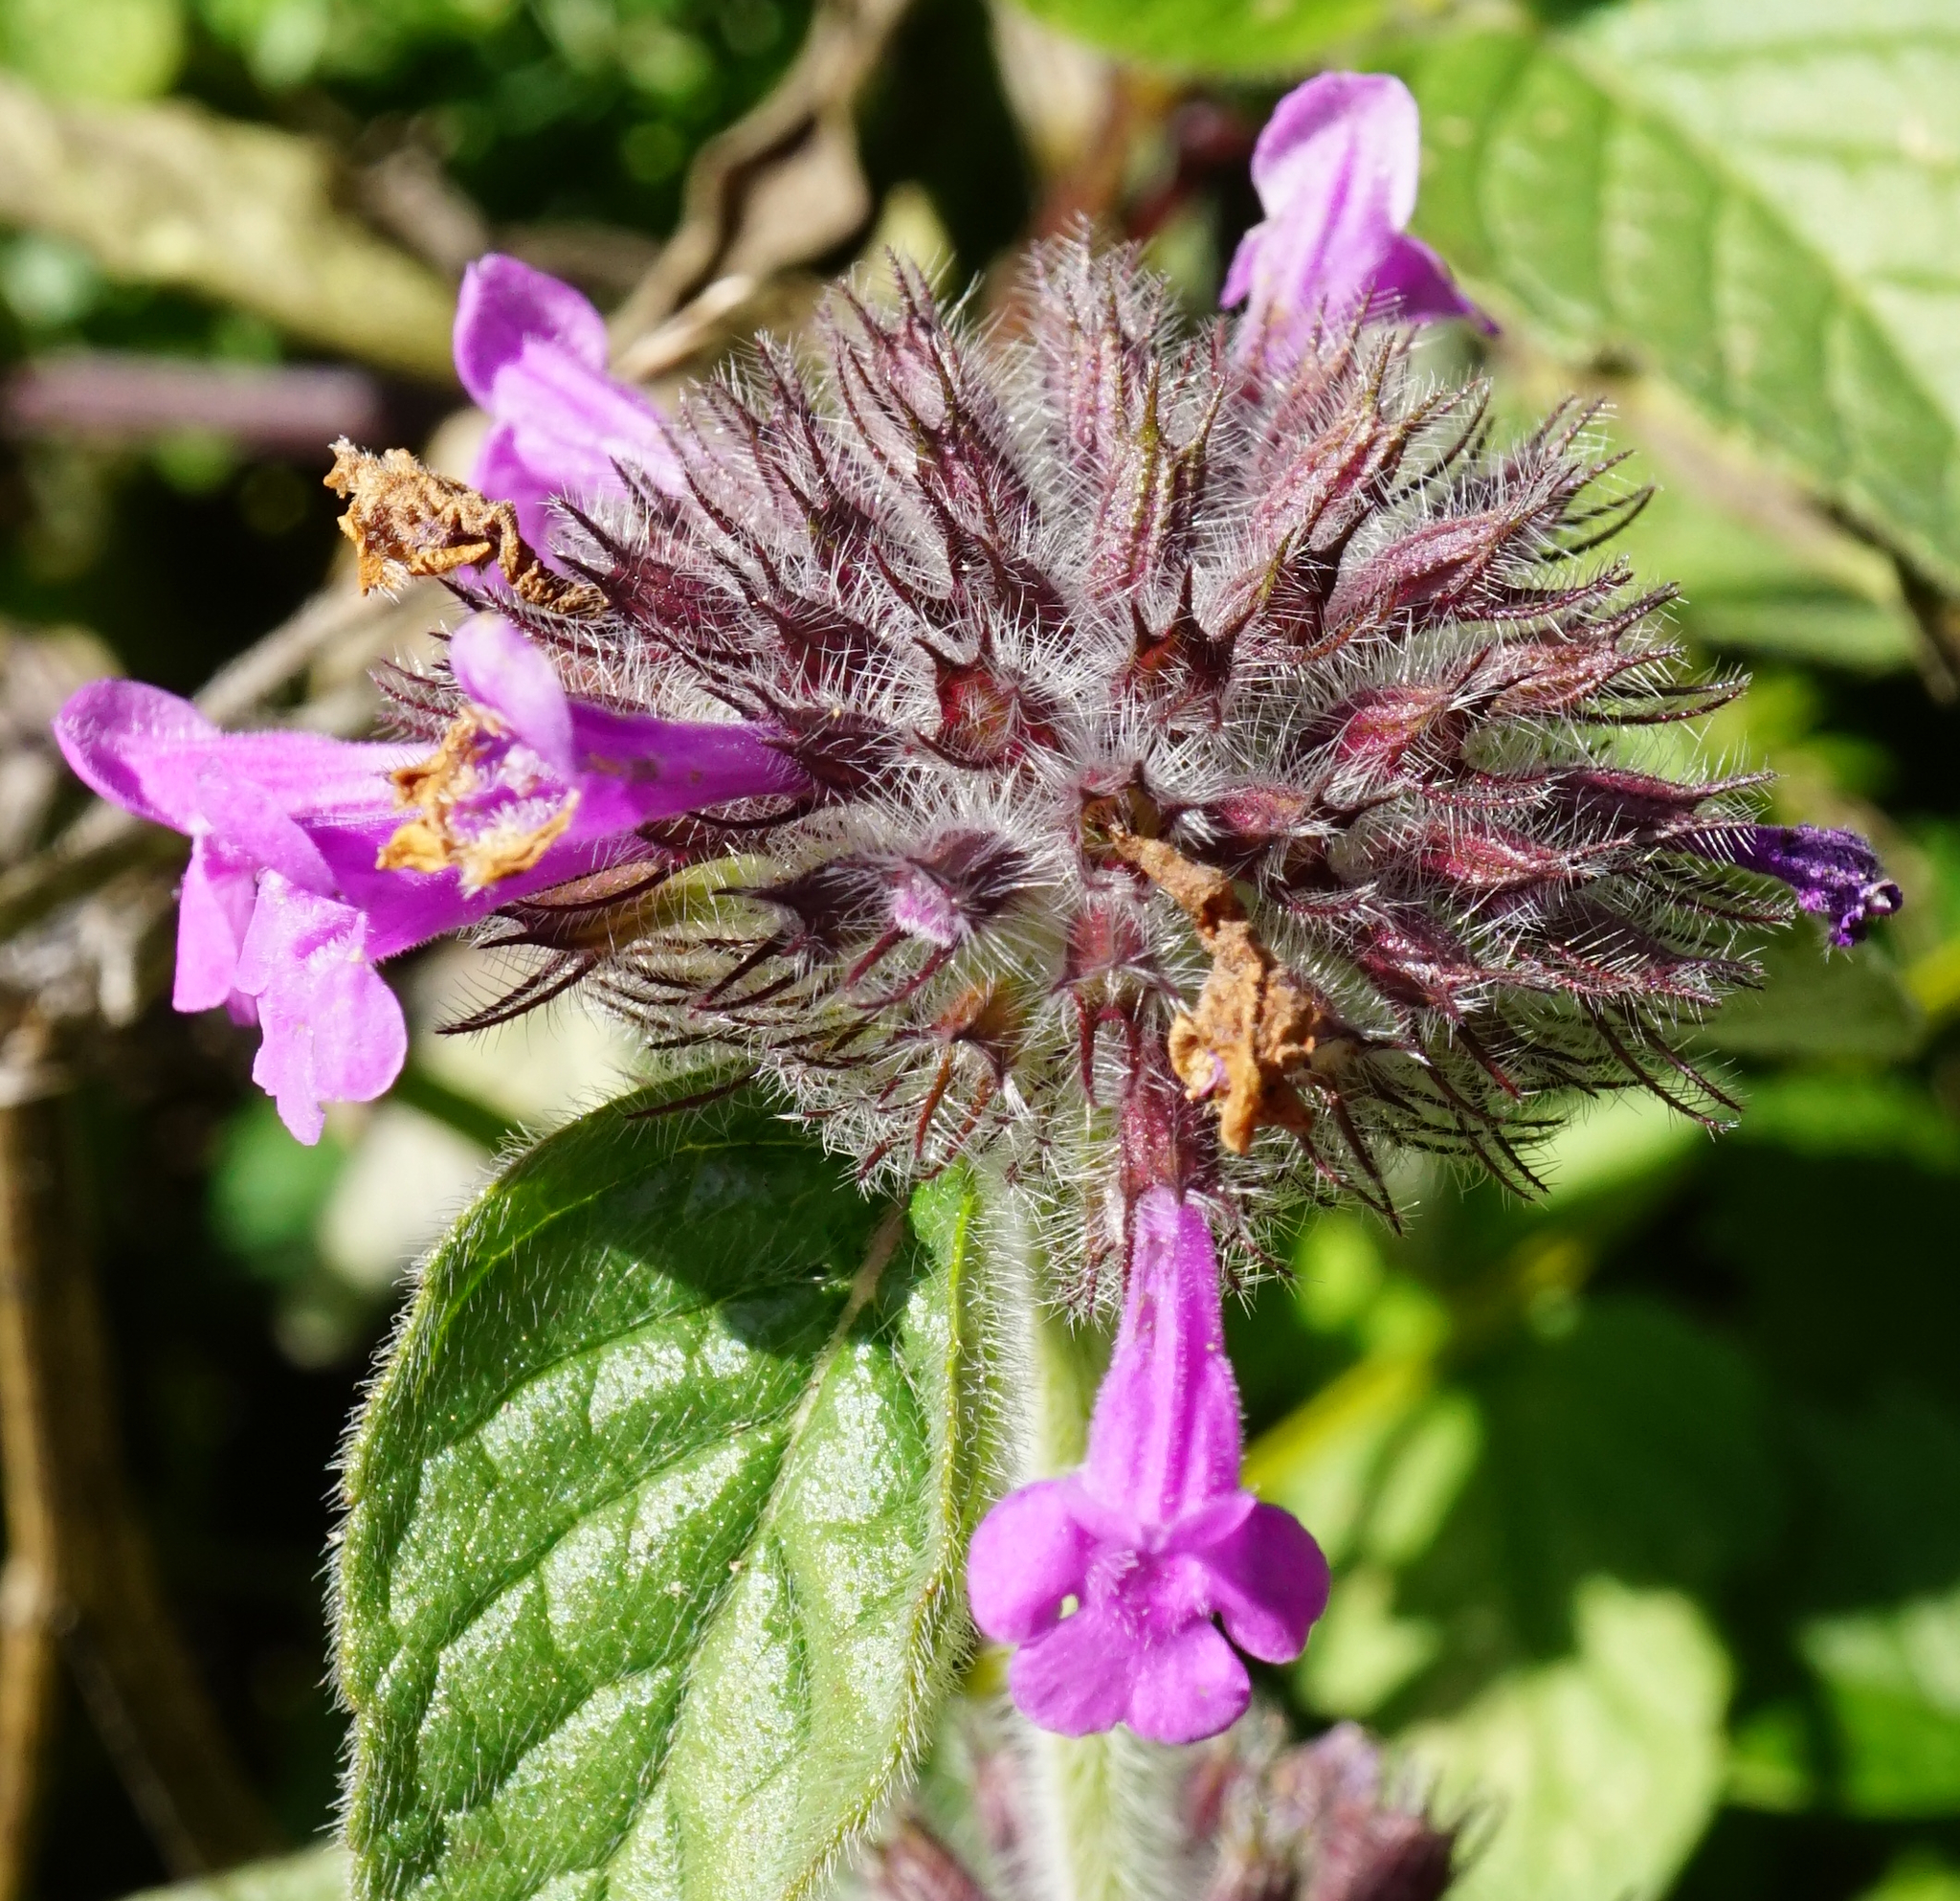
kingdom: Plantae
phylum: Tracheophyta
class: Magnoliopsida
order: Lamiales
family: Lamiaceae
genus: Clinopodium
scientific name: Clinopodium vulgare
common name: Wild basil
